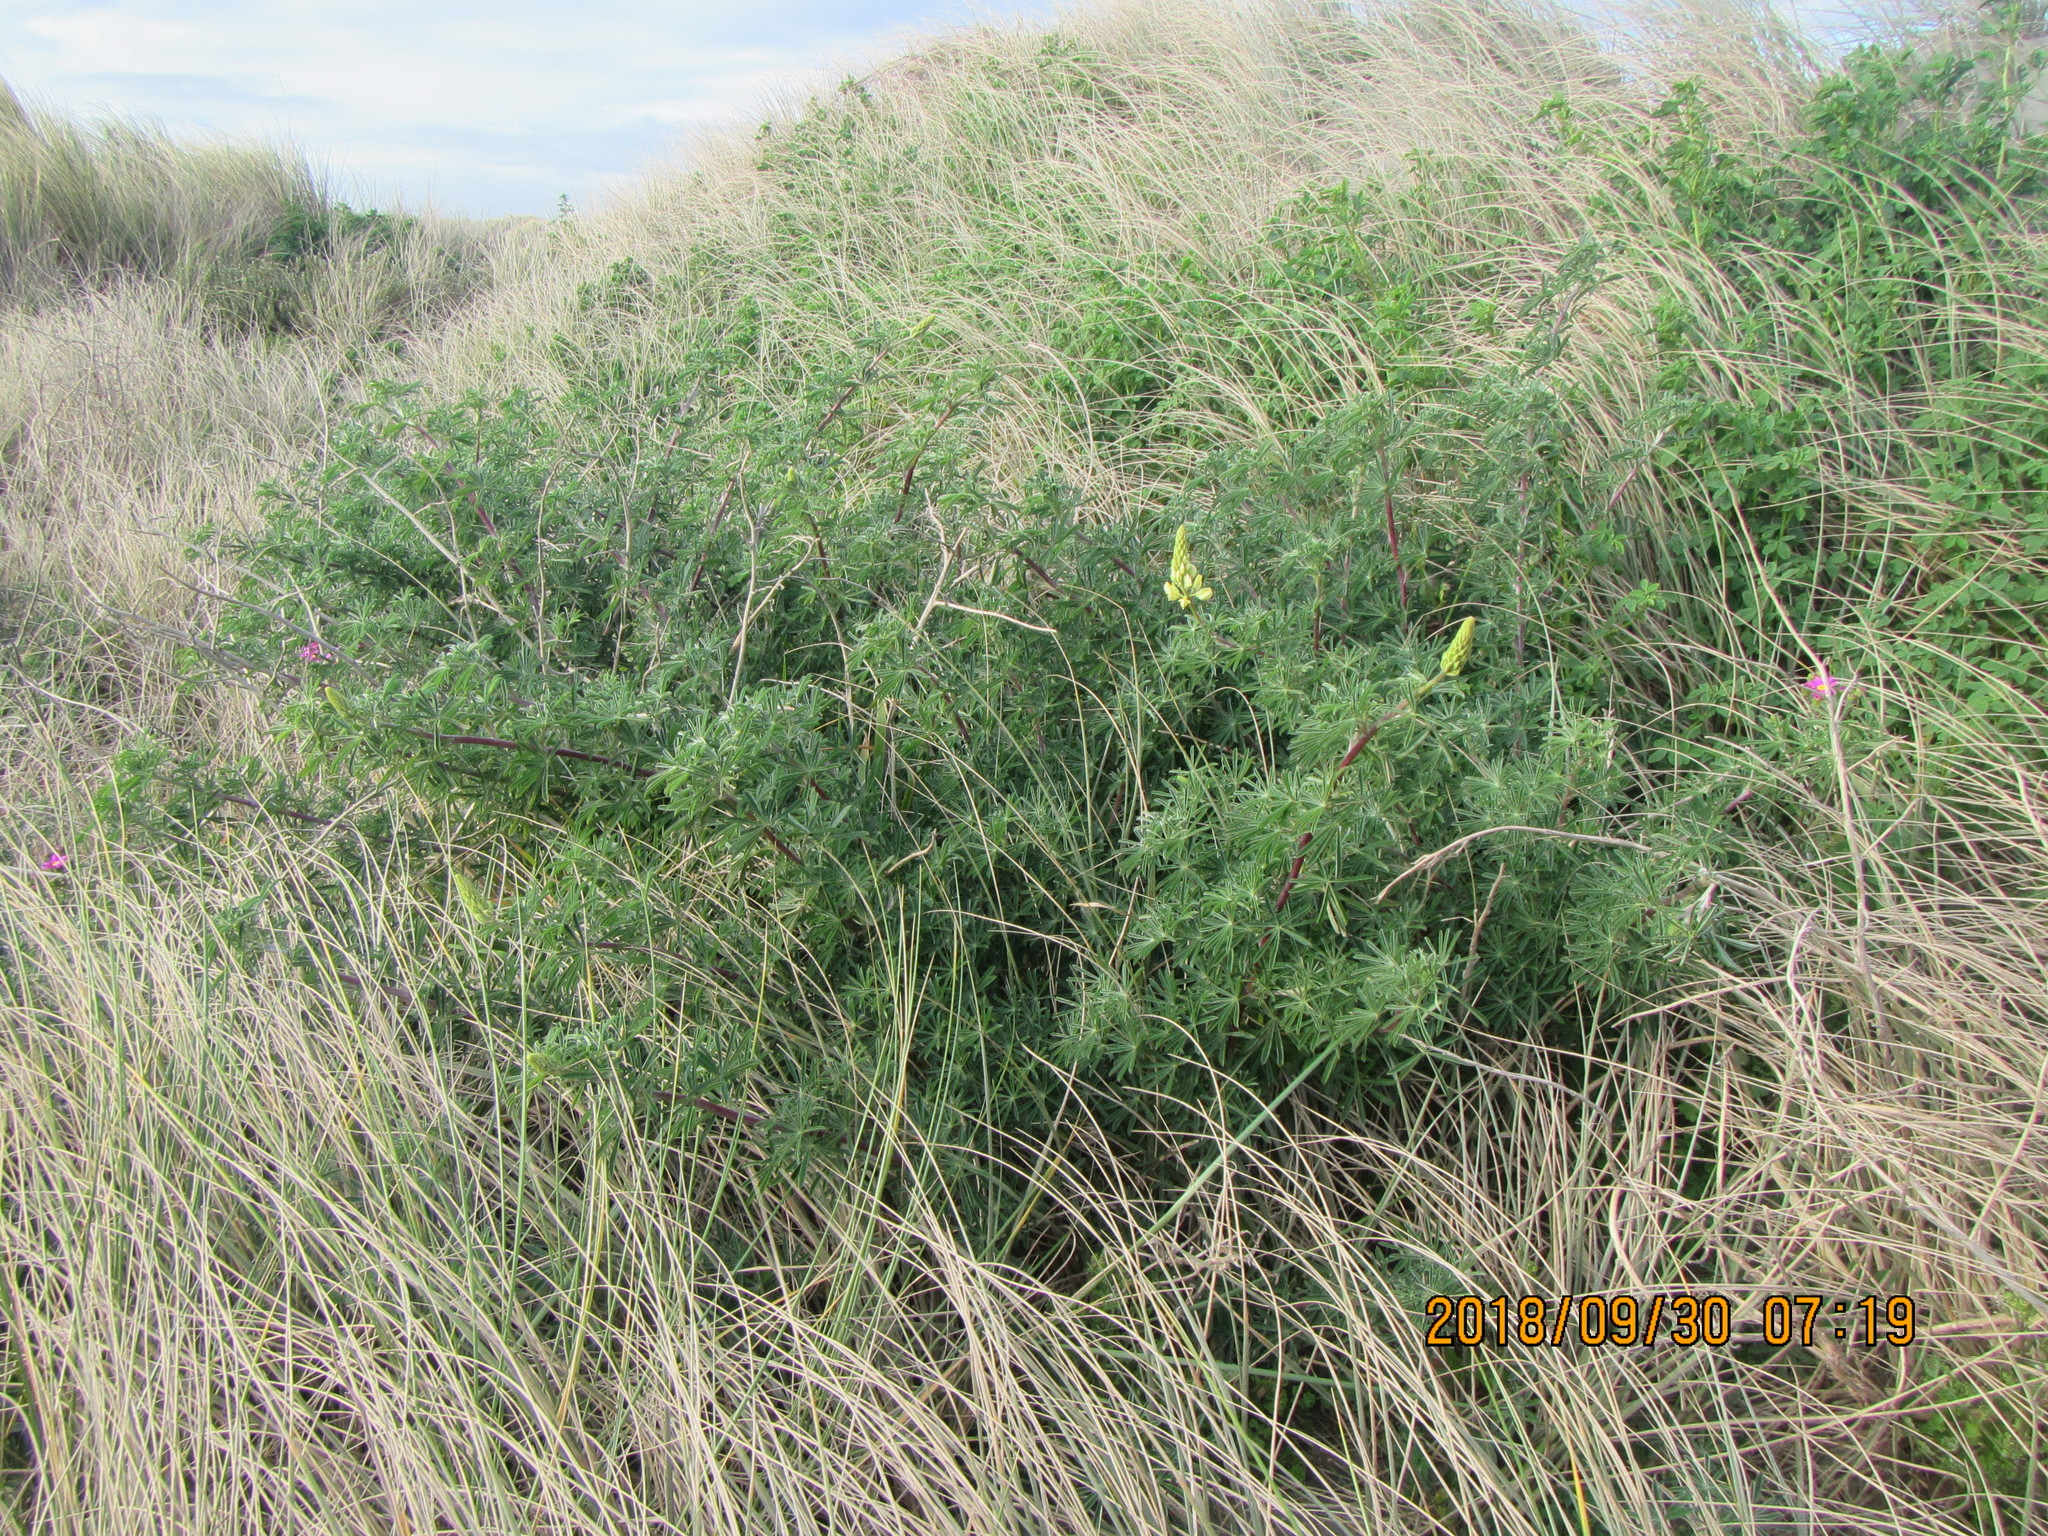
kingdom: Plantae
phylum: Tracheophyta
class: Magnoliopsida
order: Fabales
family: Fabaceae
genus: Lupinus
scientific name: Lupinus arboreus
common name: Yellow bush lupine
